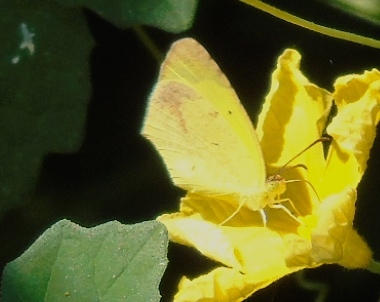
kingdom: Animalia
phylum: Arthropoda
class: Insecta
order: Lepidoptera
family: Pieridae
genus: Abaeis
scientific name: Abaeis boisduvaliana
